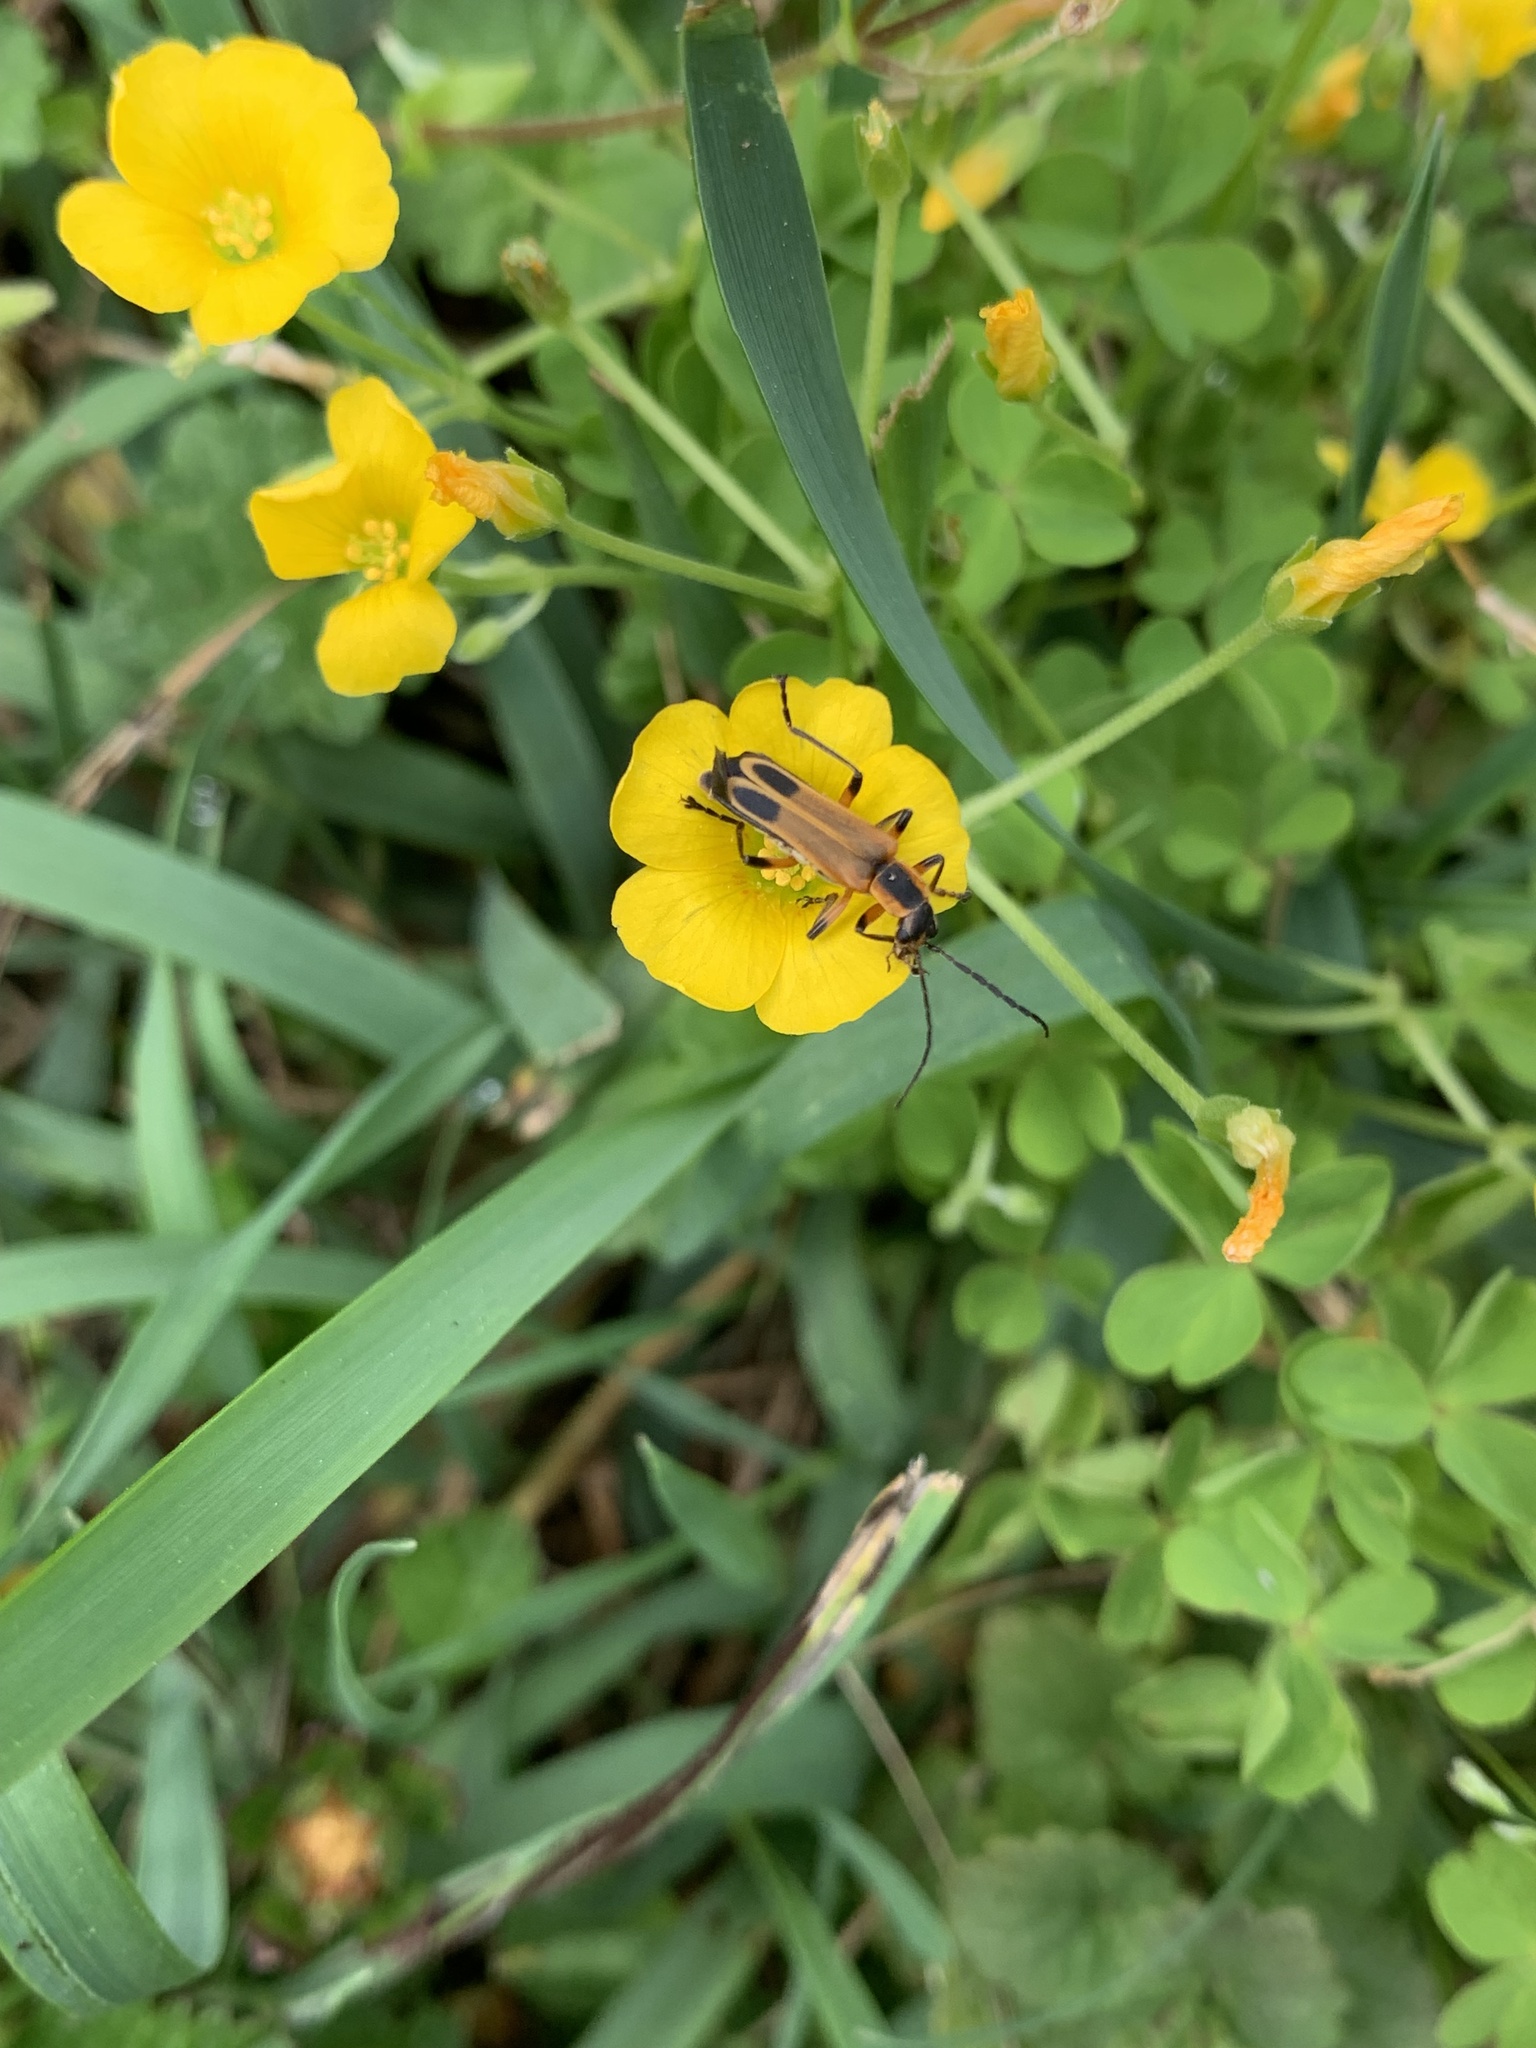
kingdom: Animalia
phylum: Arthropoda
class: Insecta
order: Coleoptera
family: Cantharidae
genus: Chauliognathus
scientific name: Chauliognathus marginatus
